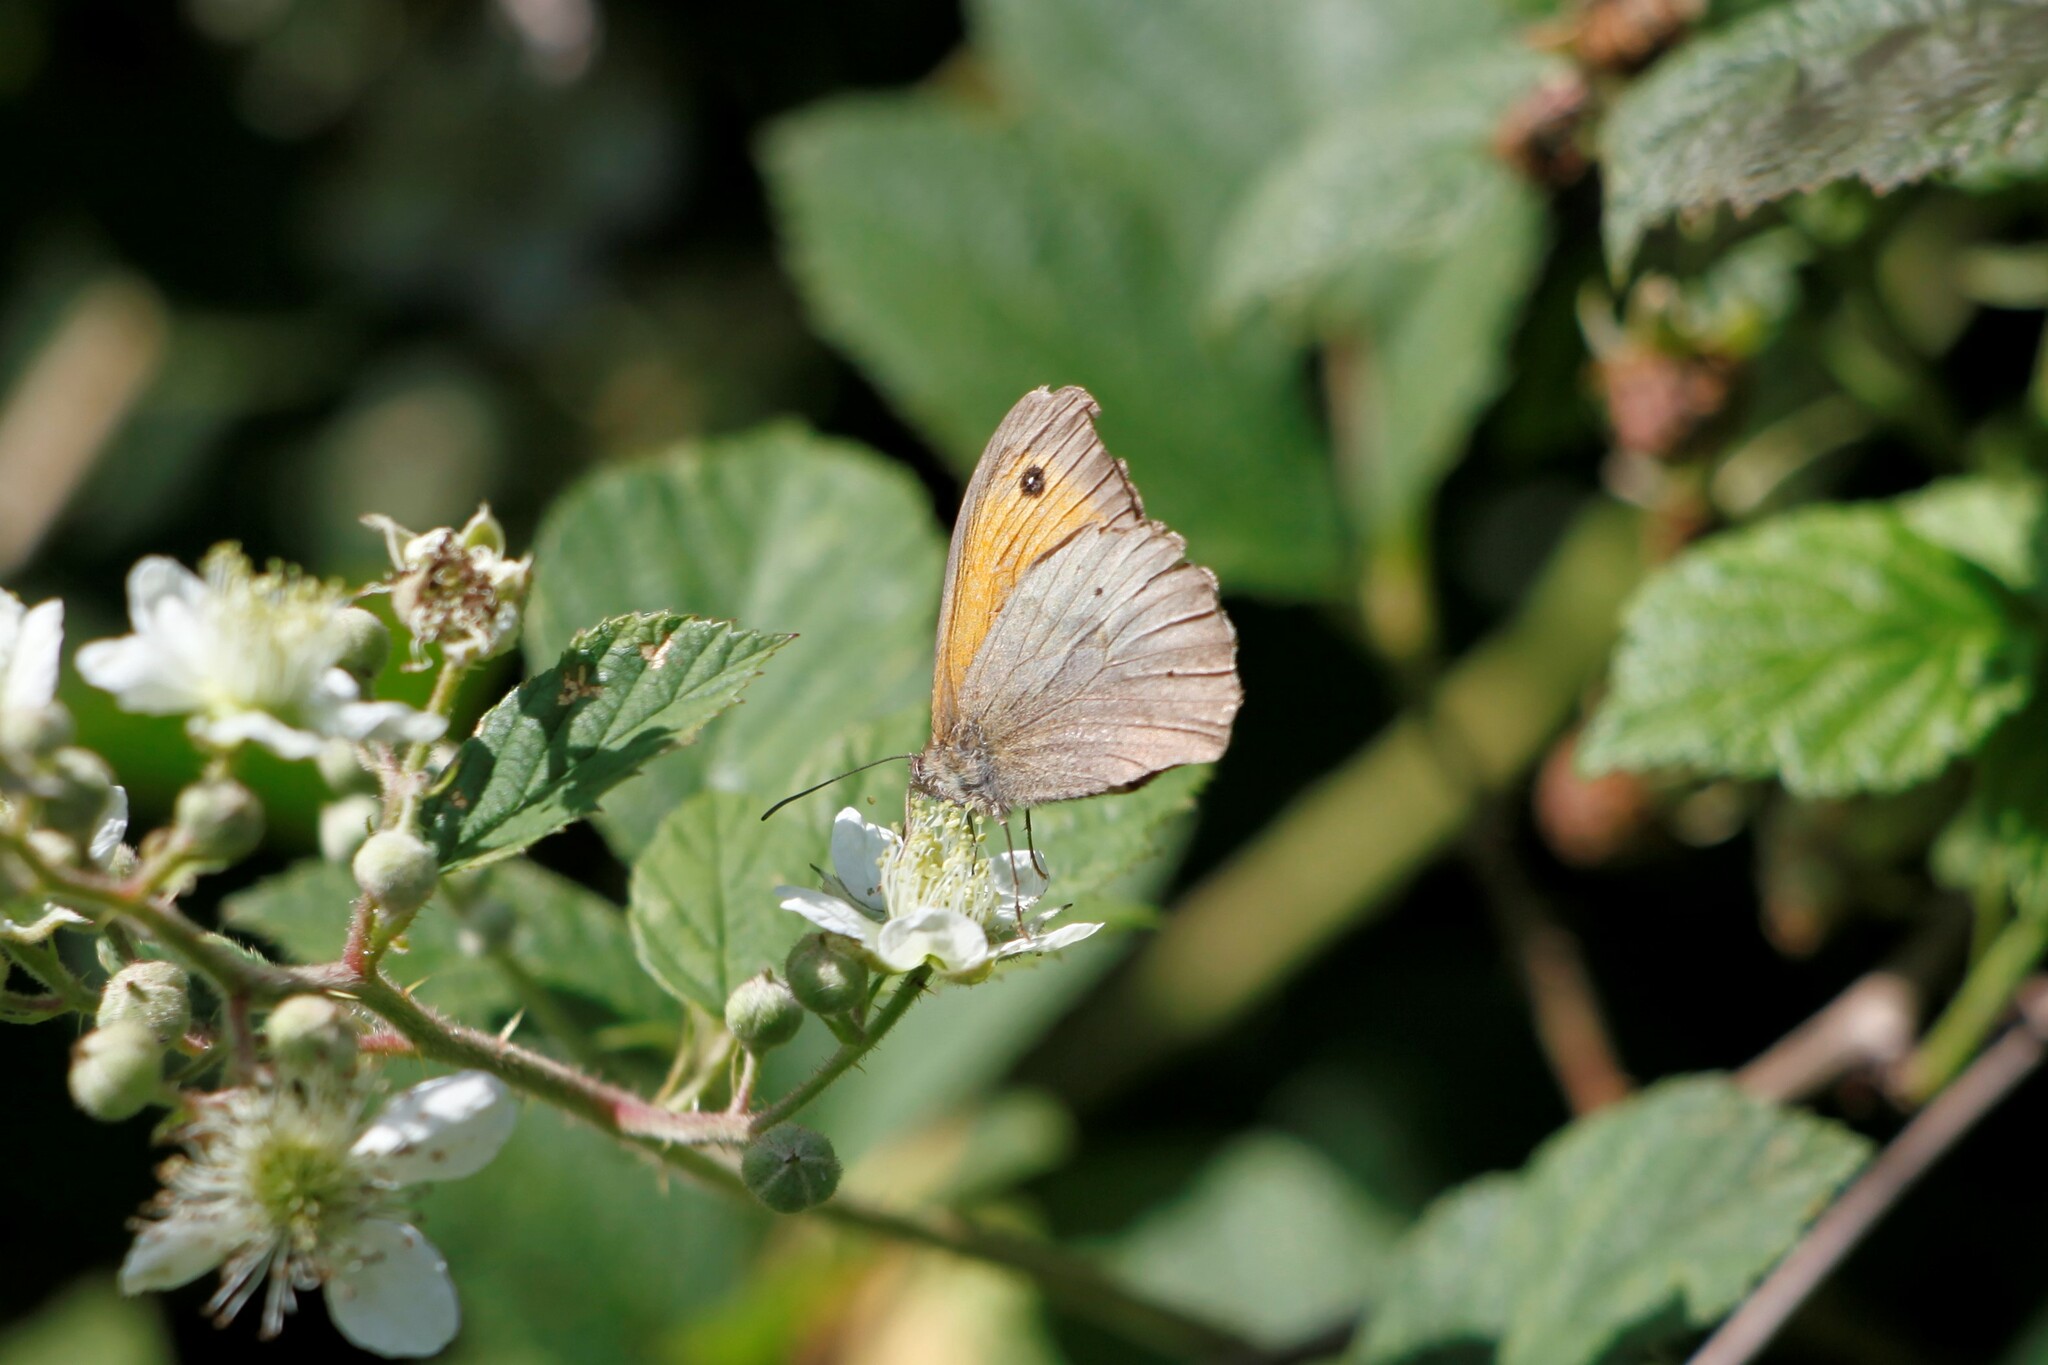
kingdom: Animalia
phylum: Arthropoda
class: Insecta
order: Lepidoptera
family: Nymphalidae
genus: Maniola
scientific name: Maniola jurtina
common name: Meadow brown
